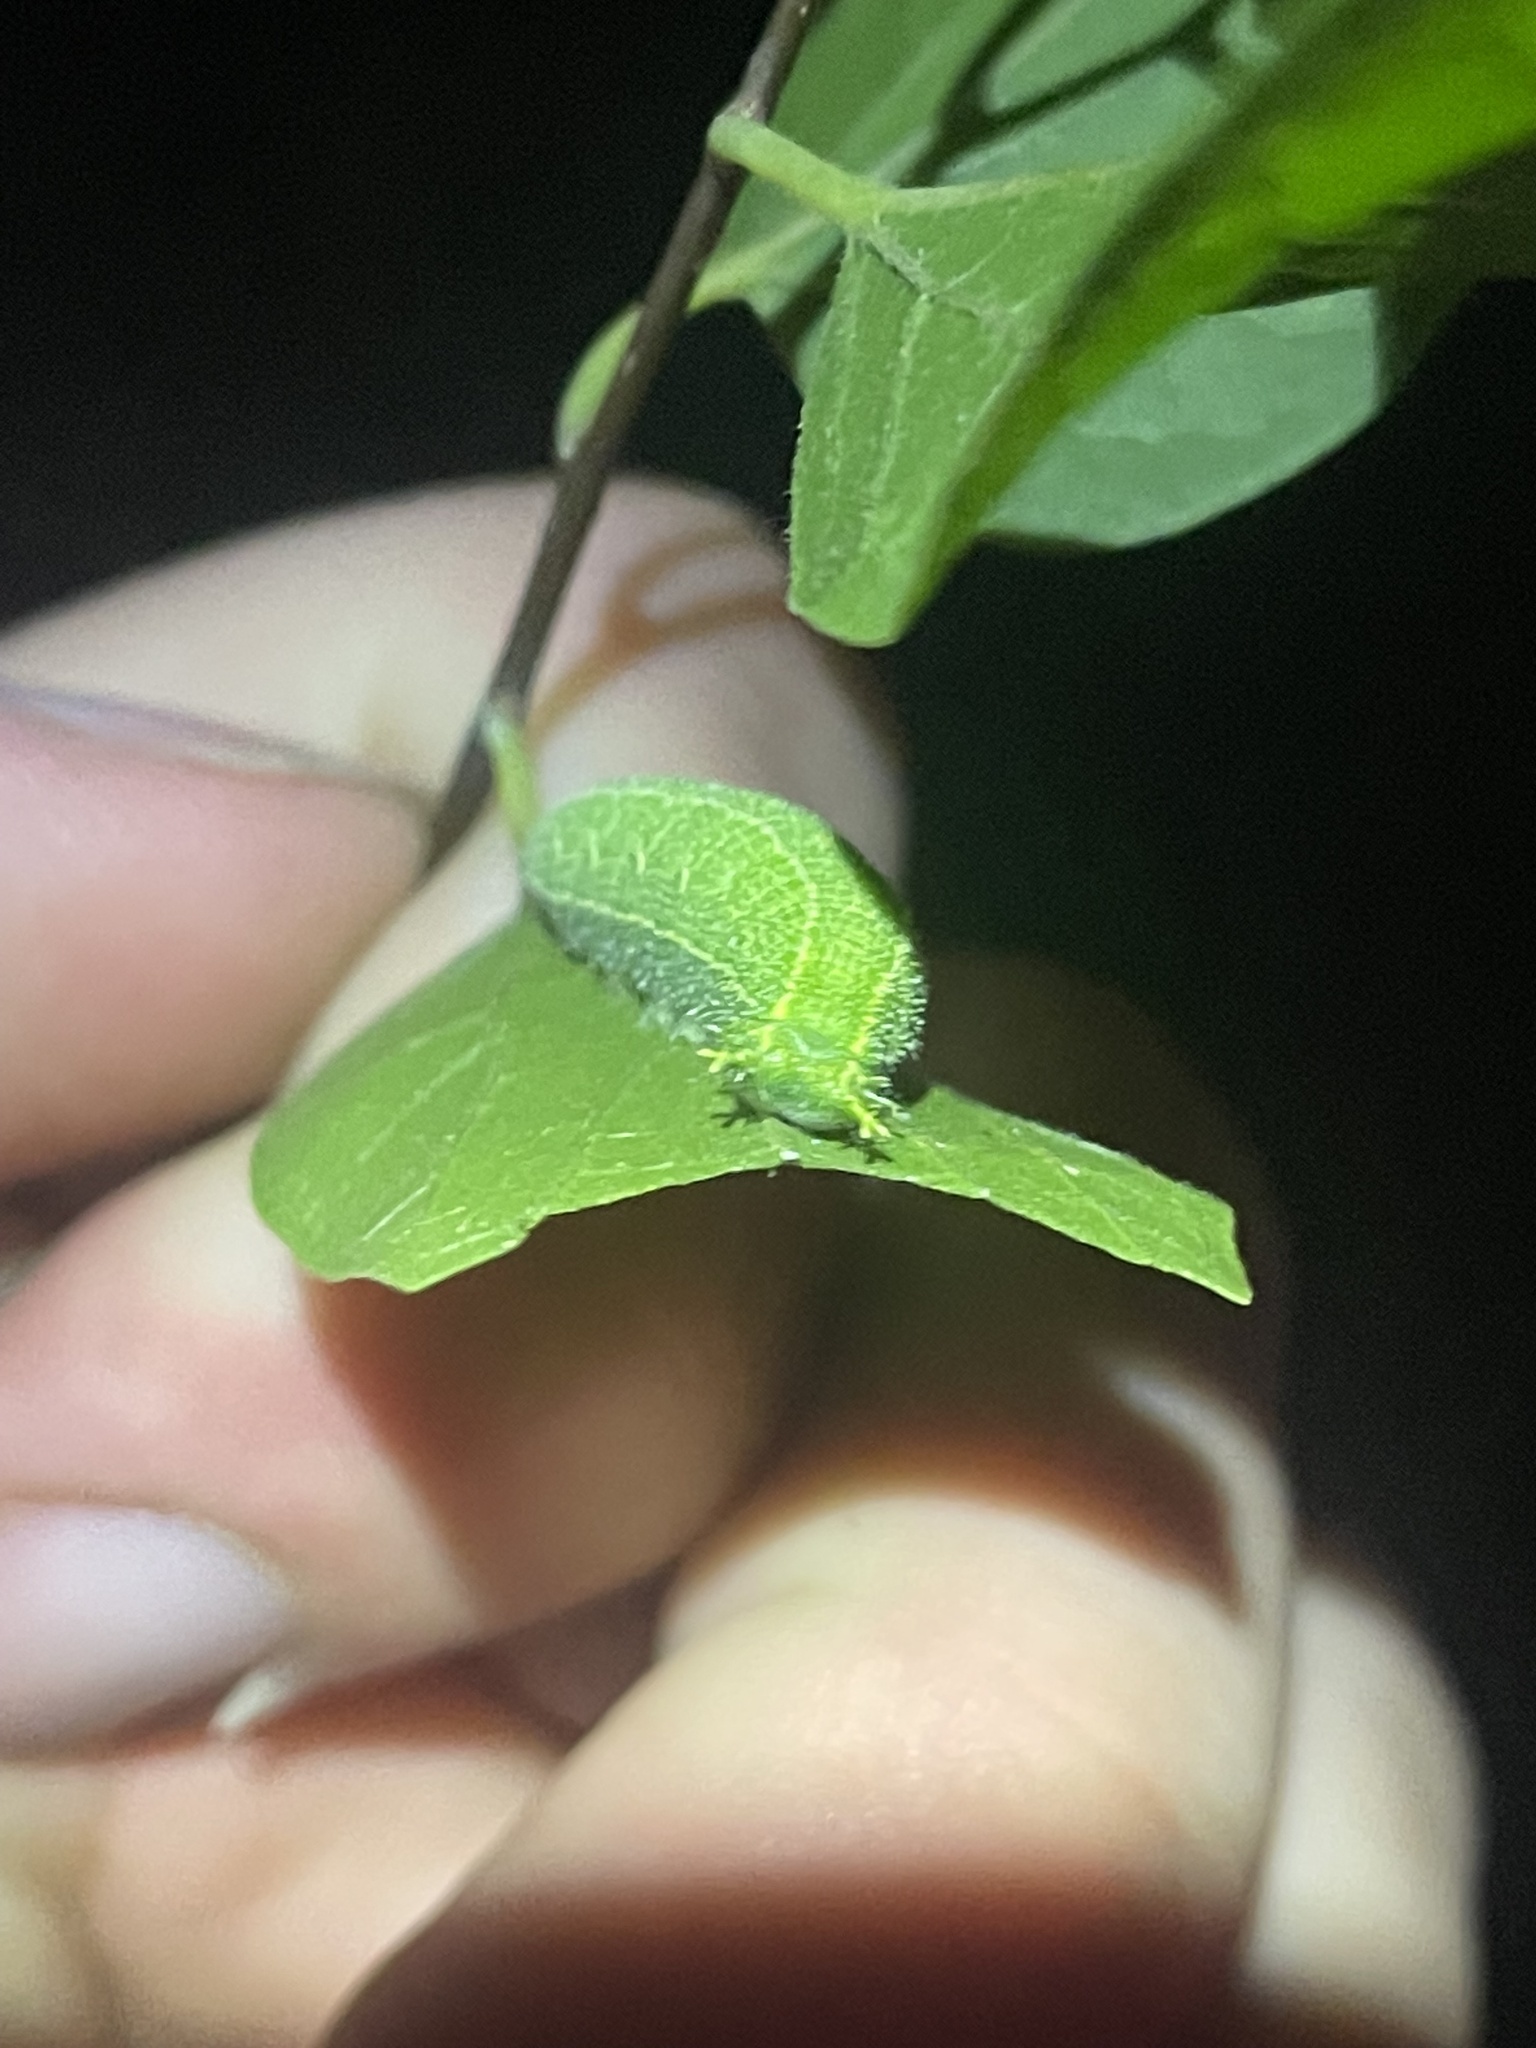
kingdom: Animalia
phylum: Arthropoda
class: Insecta
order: Lepidoptera
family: Nymphalidae
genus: Asterocampa
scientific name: Asterocampa celtis
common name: Hackberry emperor
